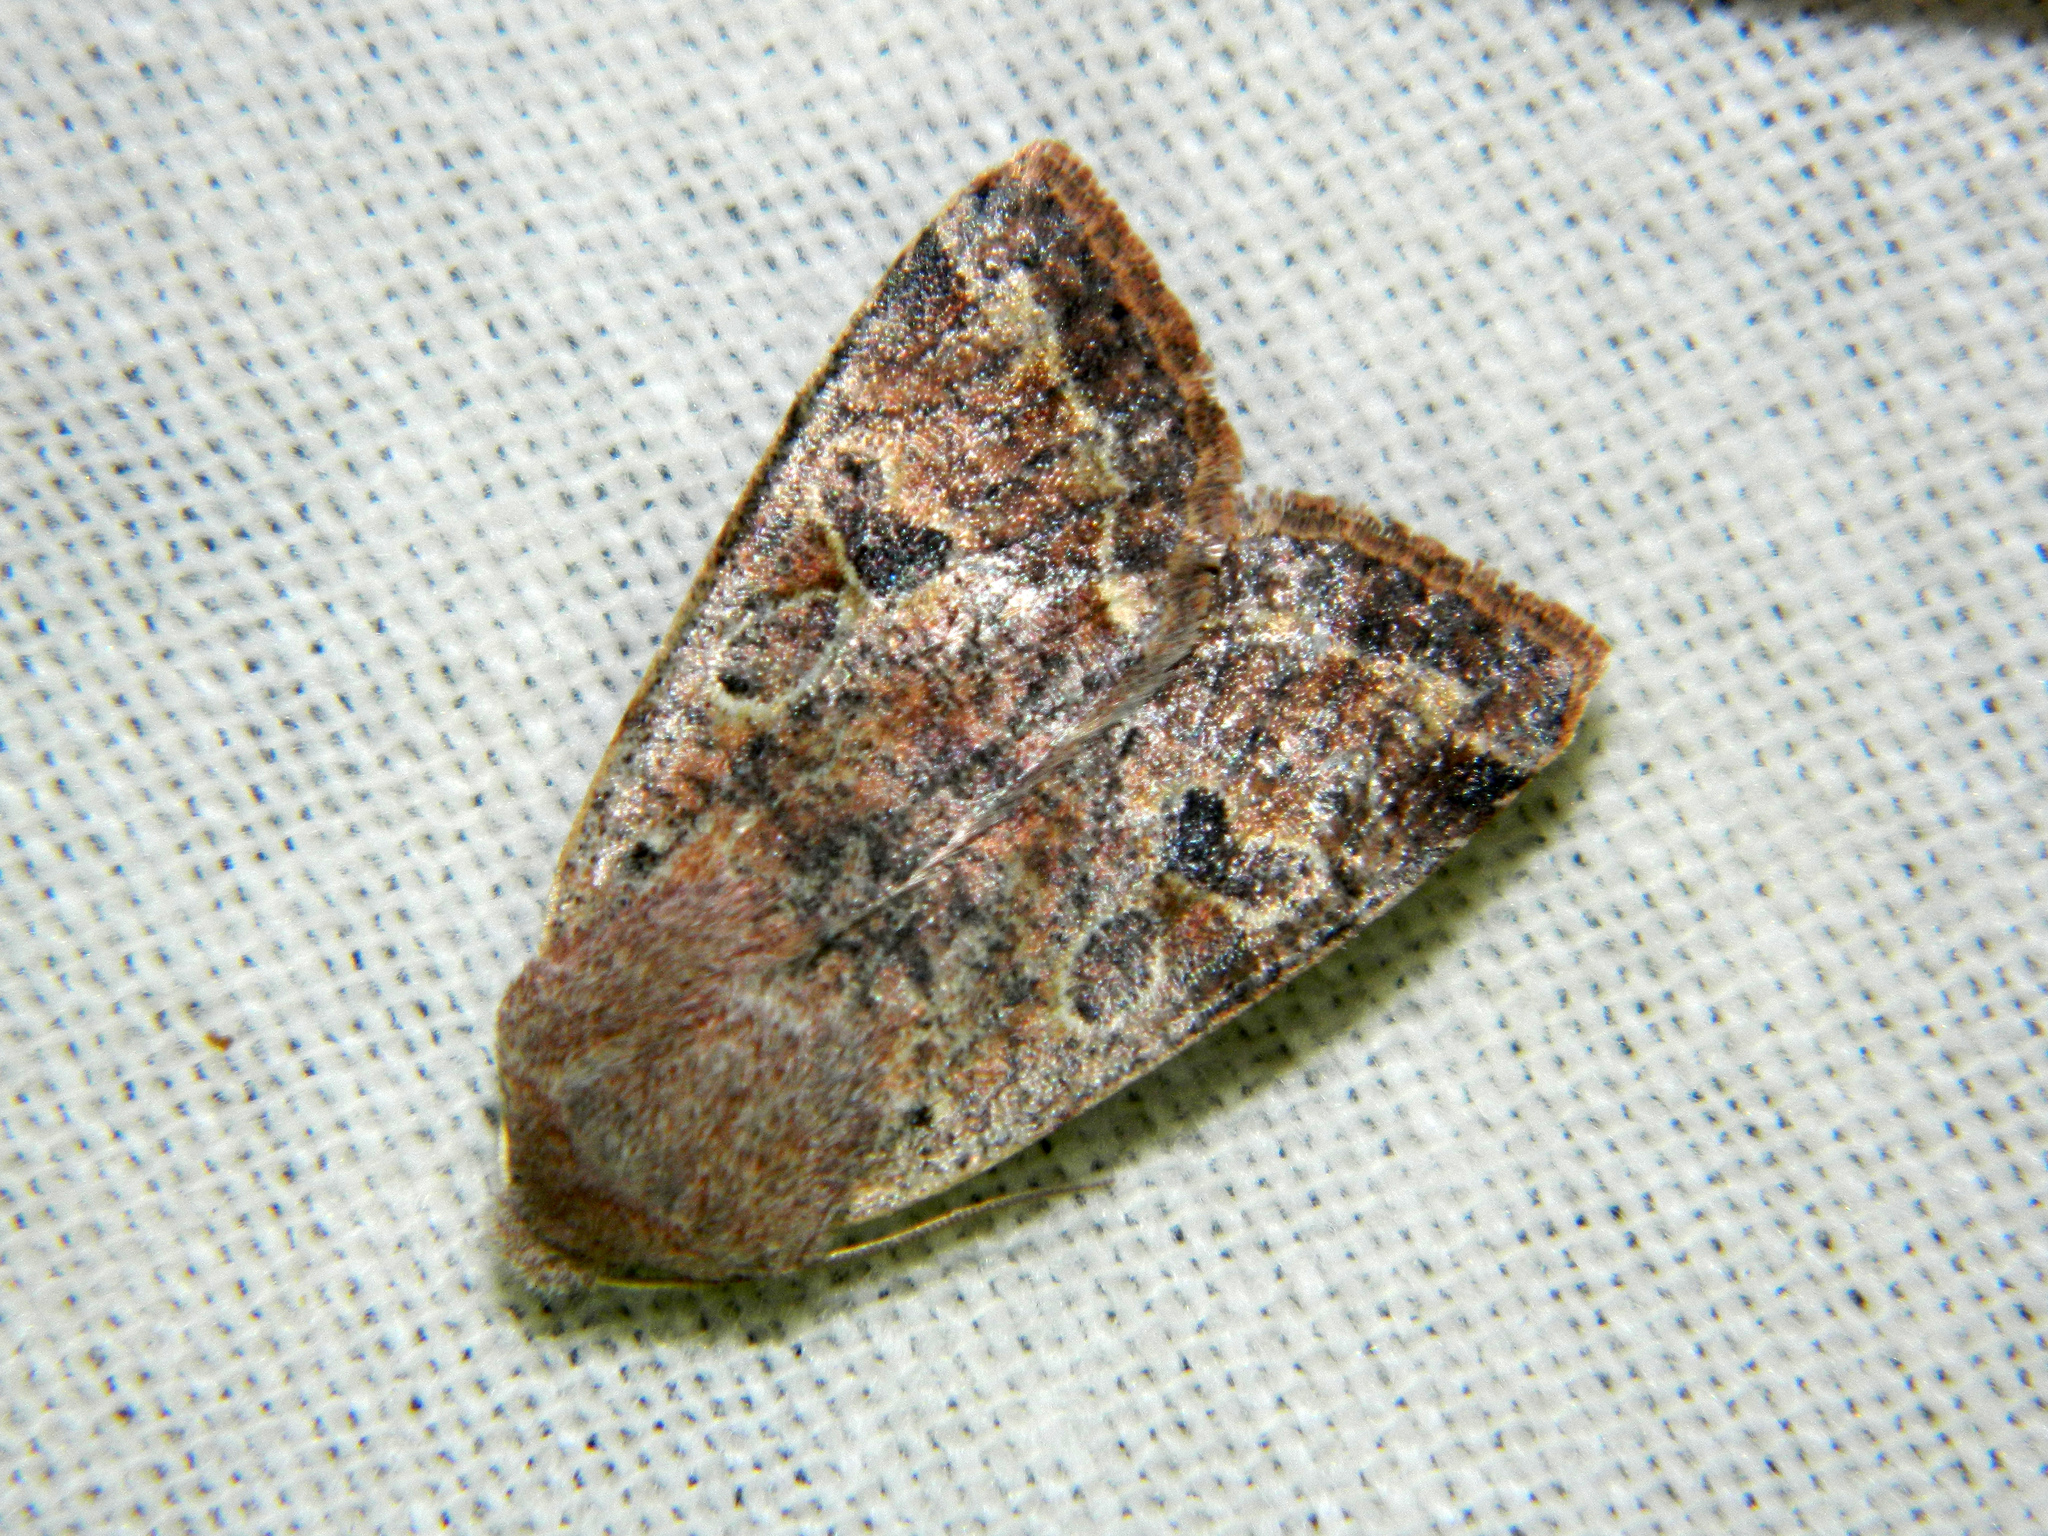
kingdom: Animalia
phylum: Arthropoda
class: Insecta
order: Lepidoptera
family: Noctuidae
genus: Orthosia
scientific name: Orthosia hibisci
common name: Green fruitworm
